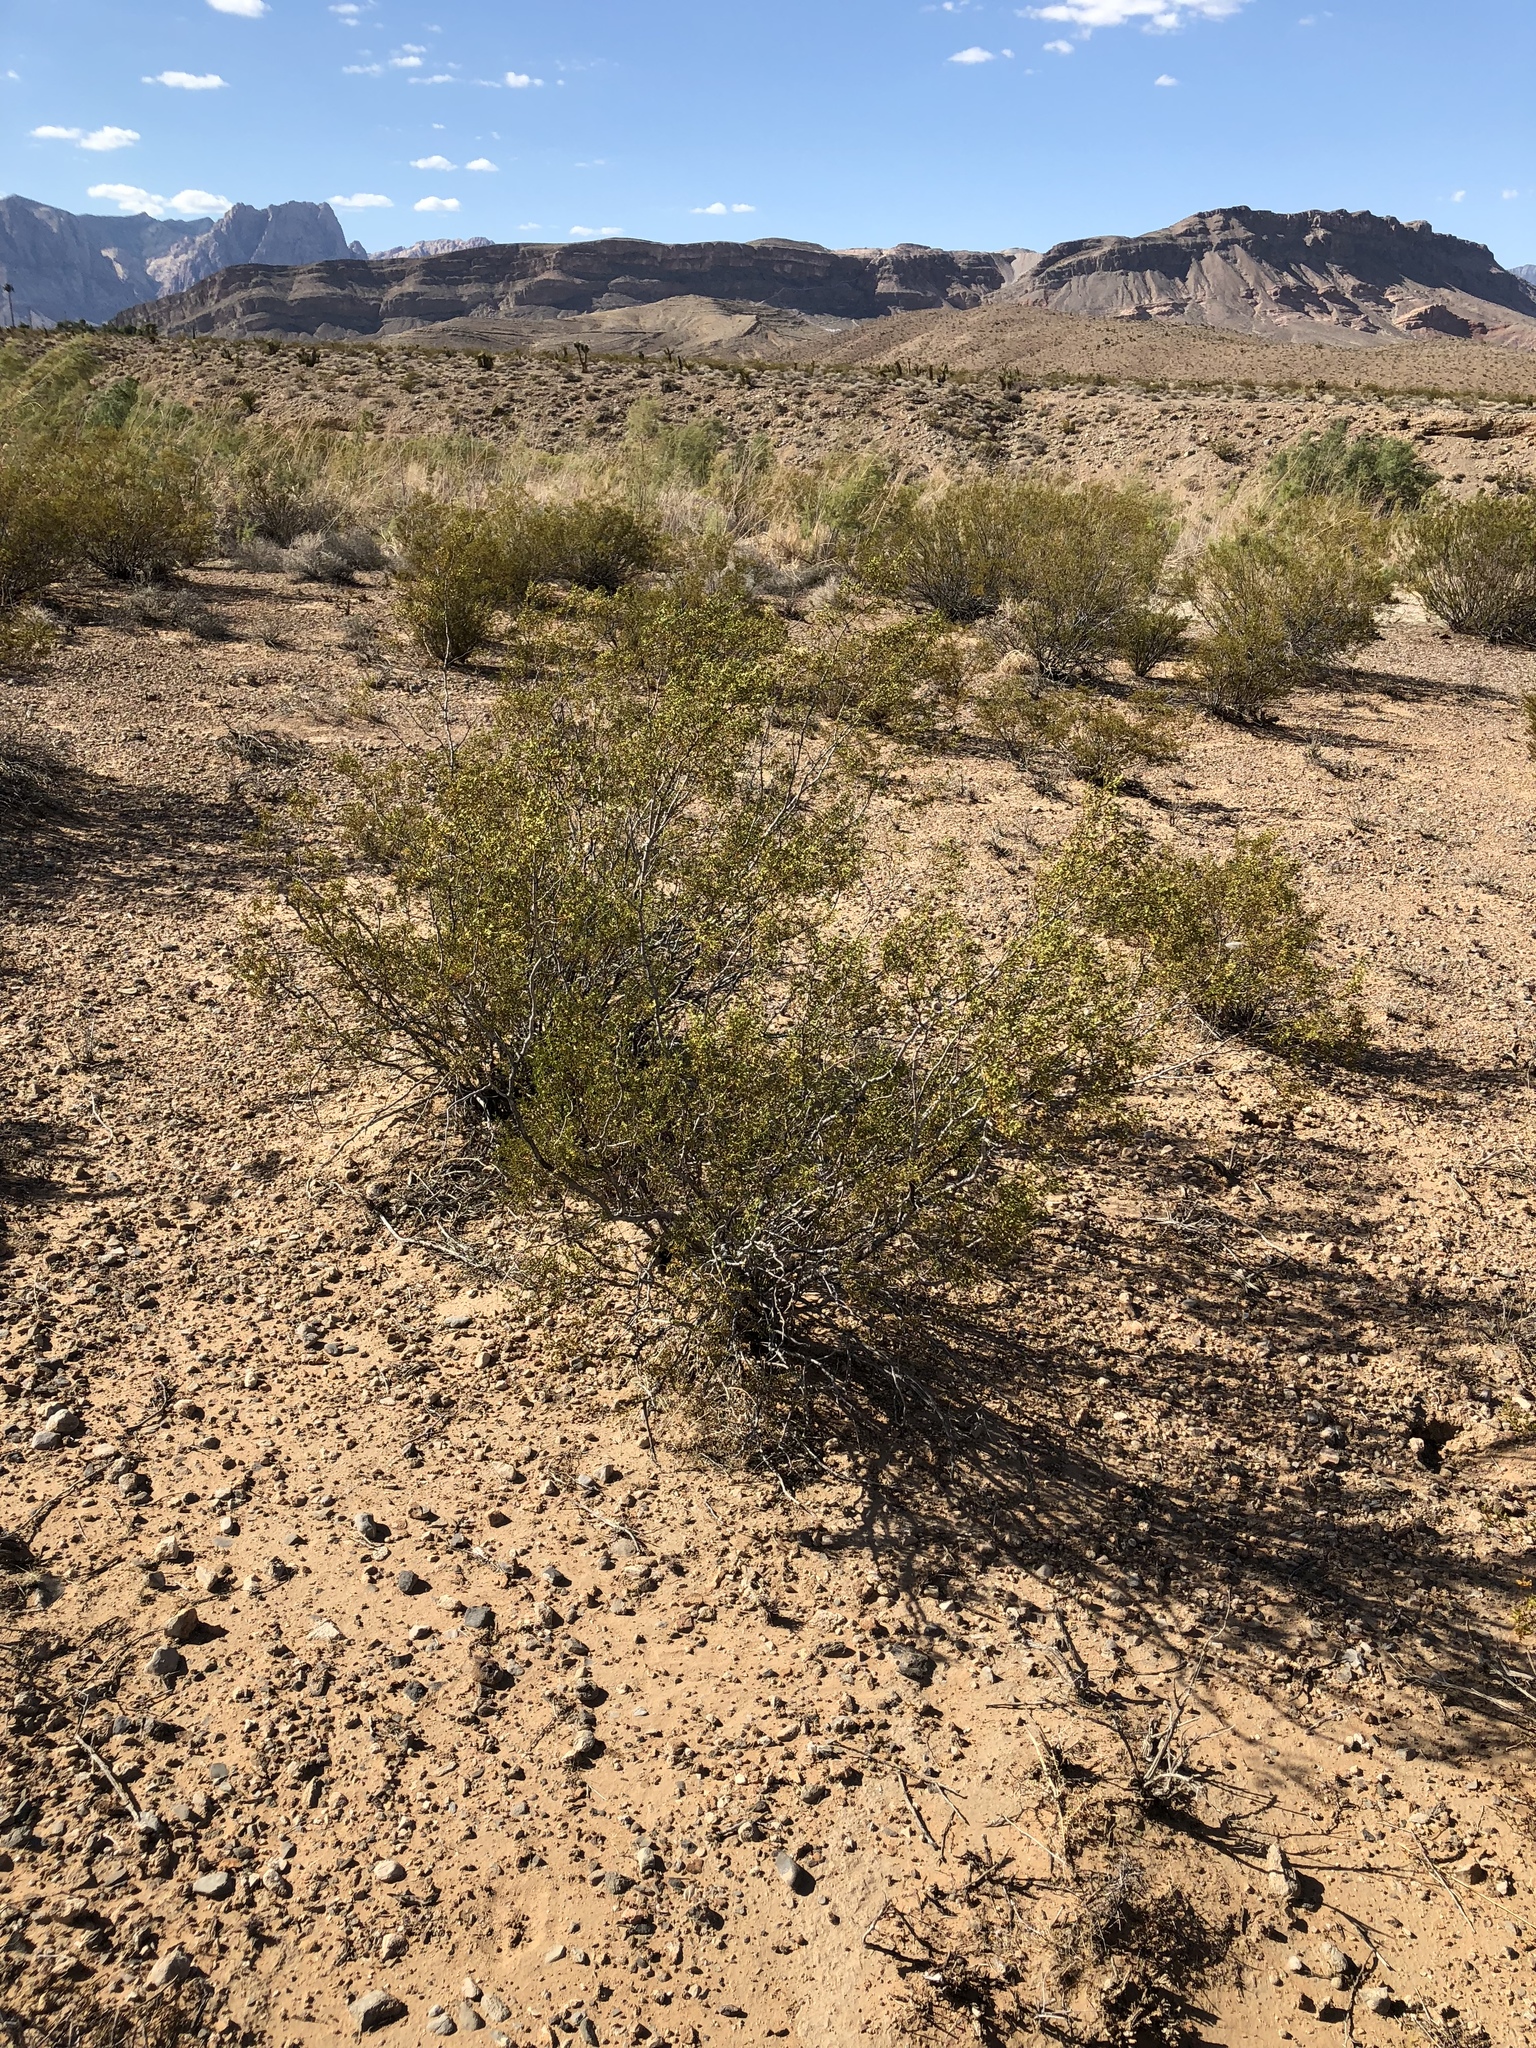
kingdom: Plantae
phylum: Tracheophyta
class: Magnoliopsida
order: Zygophyllales
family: Zygophyllaceae
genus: Larrea
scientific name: Larrea tridentata
